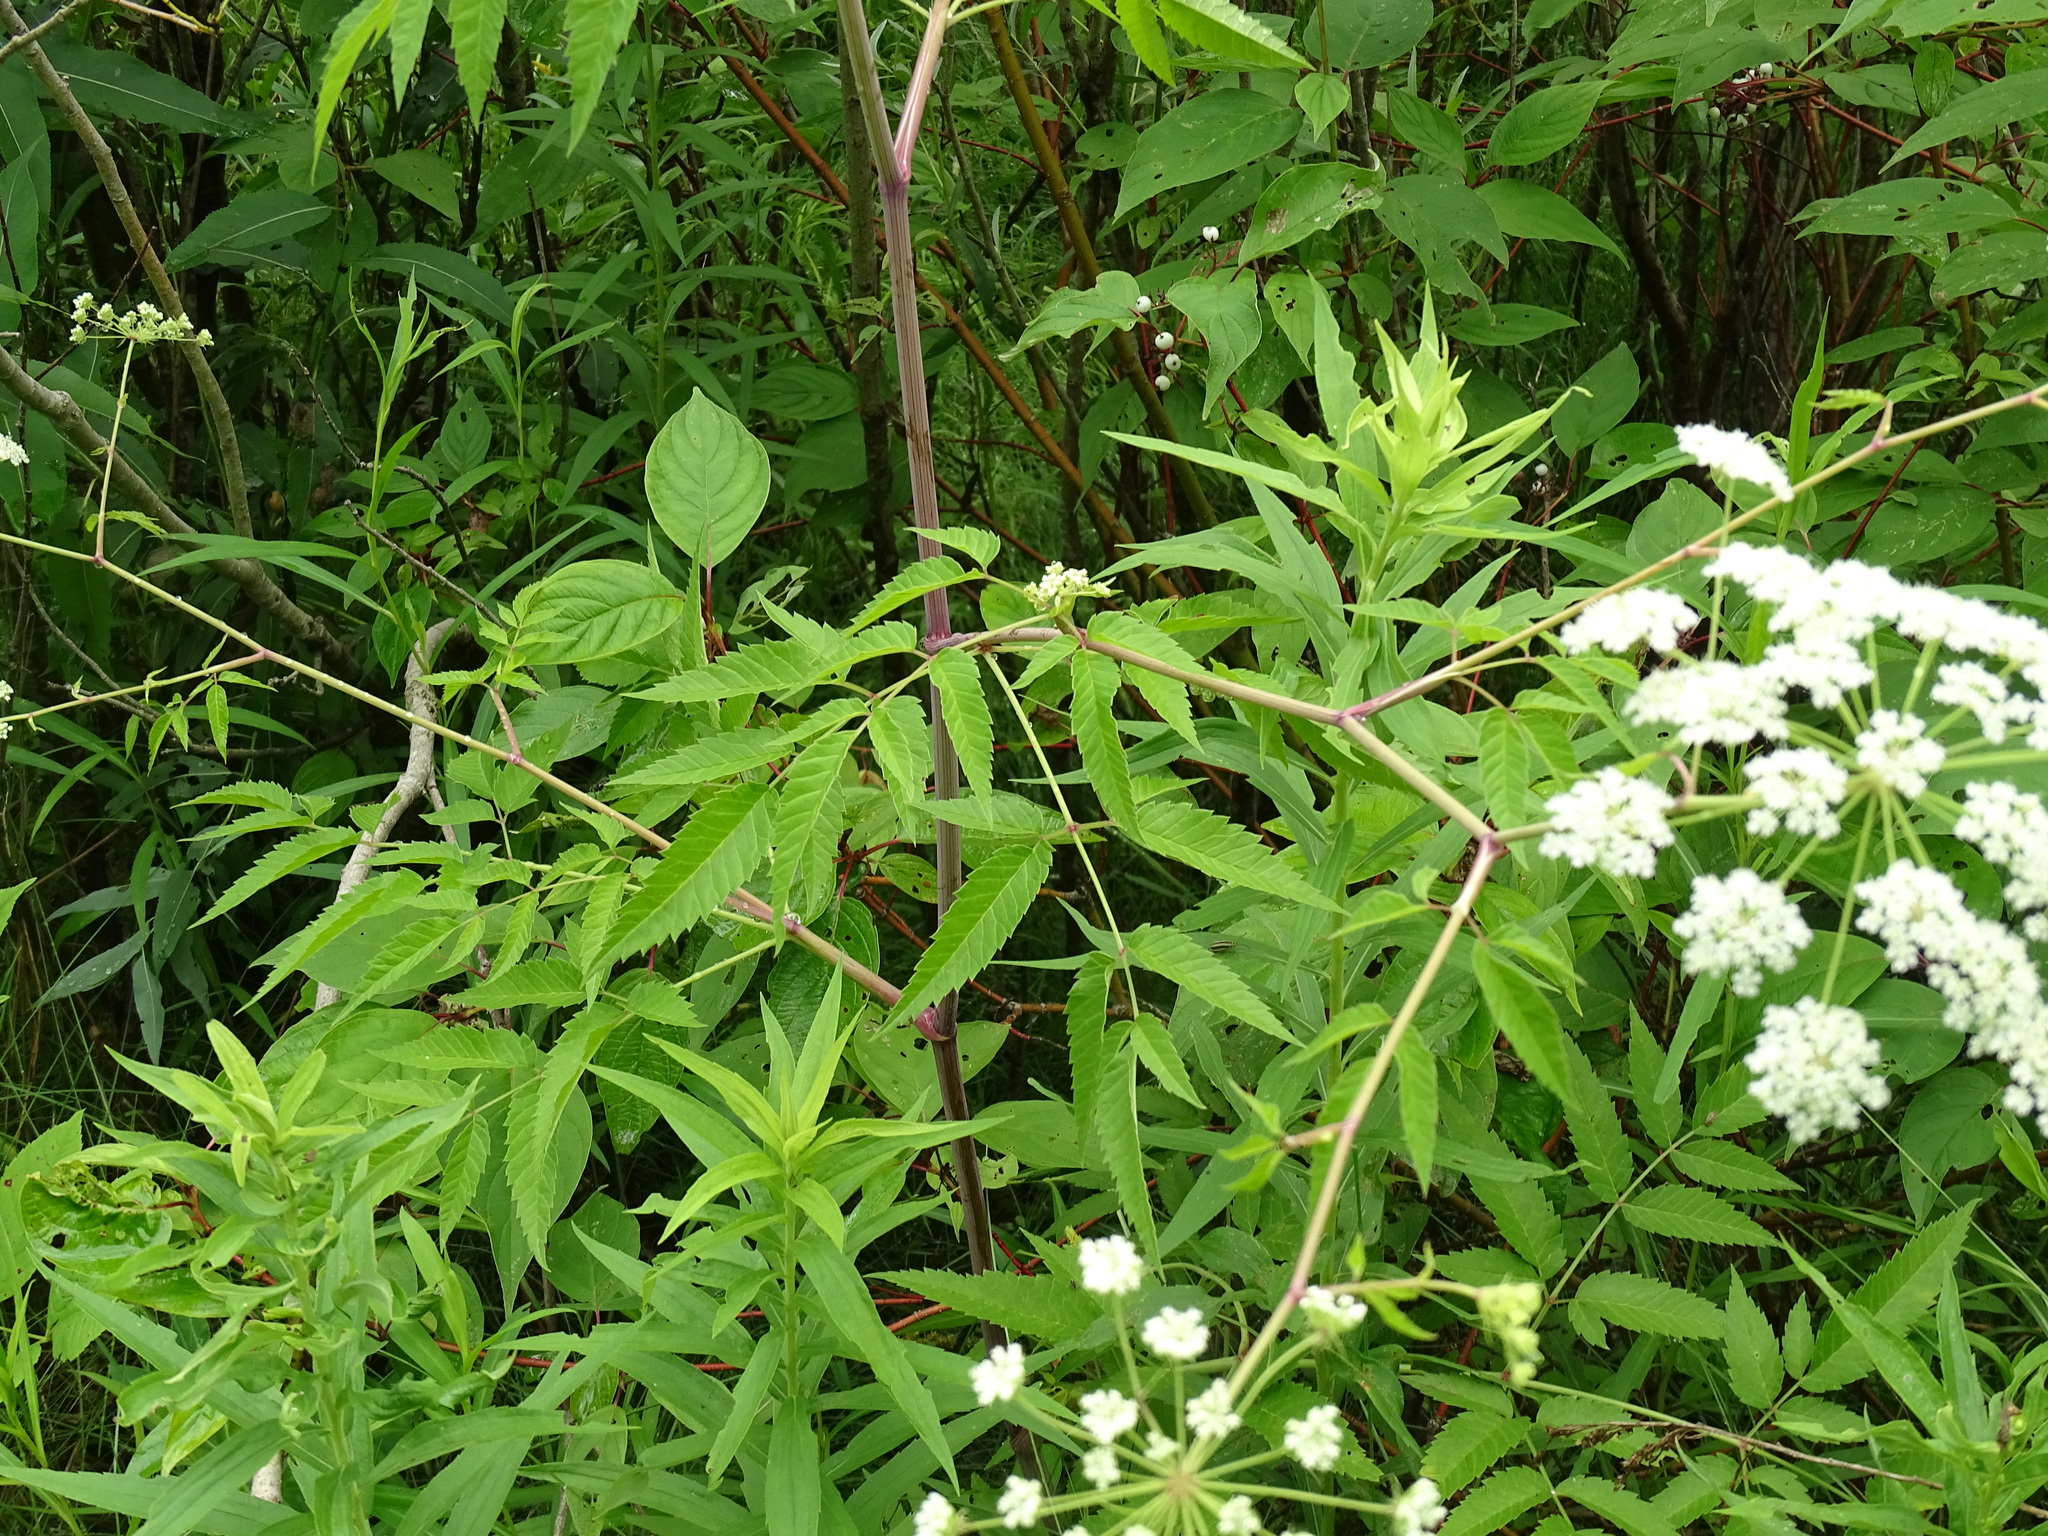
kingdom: Plantae
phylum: Tracheophyta
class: Magnoliopsida
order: Apiales
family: Apiaceae
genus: Cicuta
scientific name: Cicuta maculata
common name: Spotted cowbane
